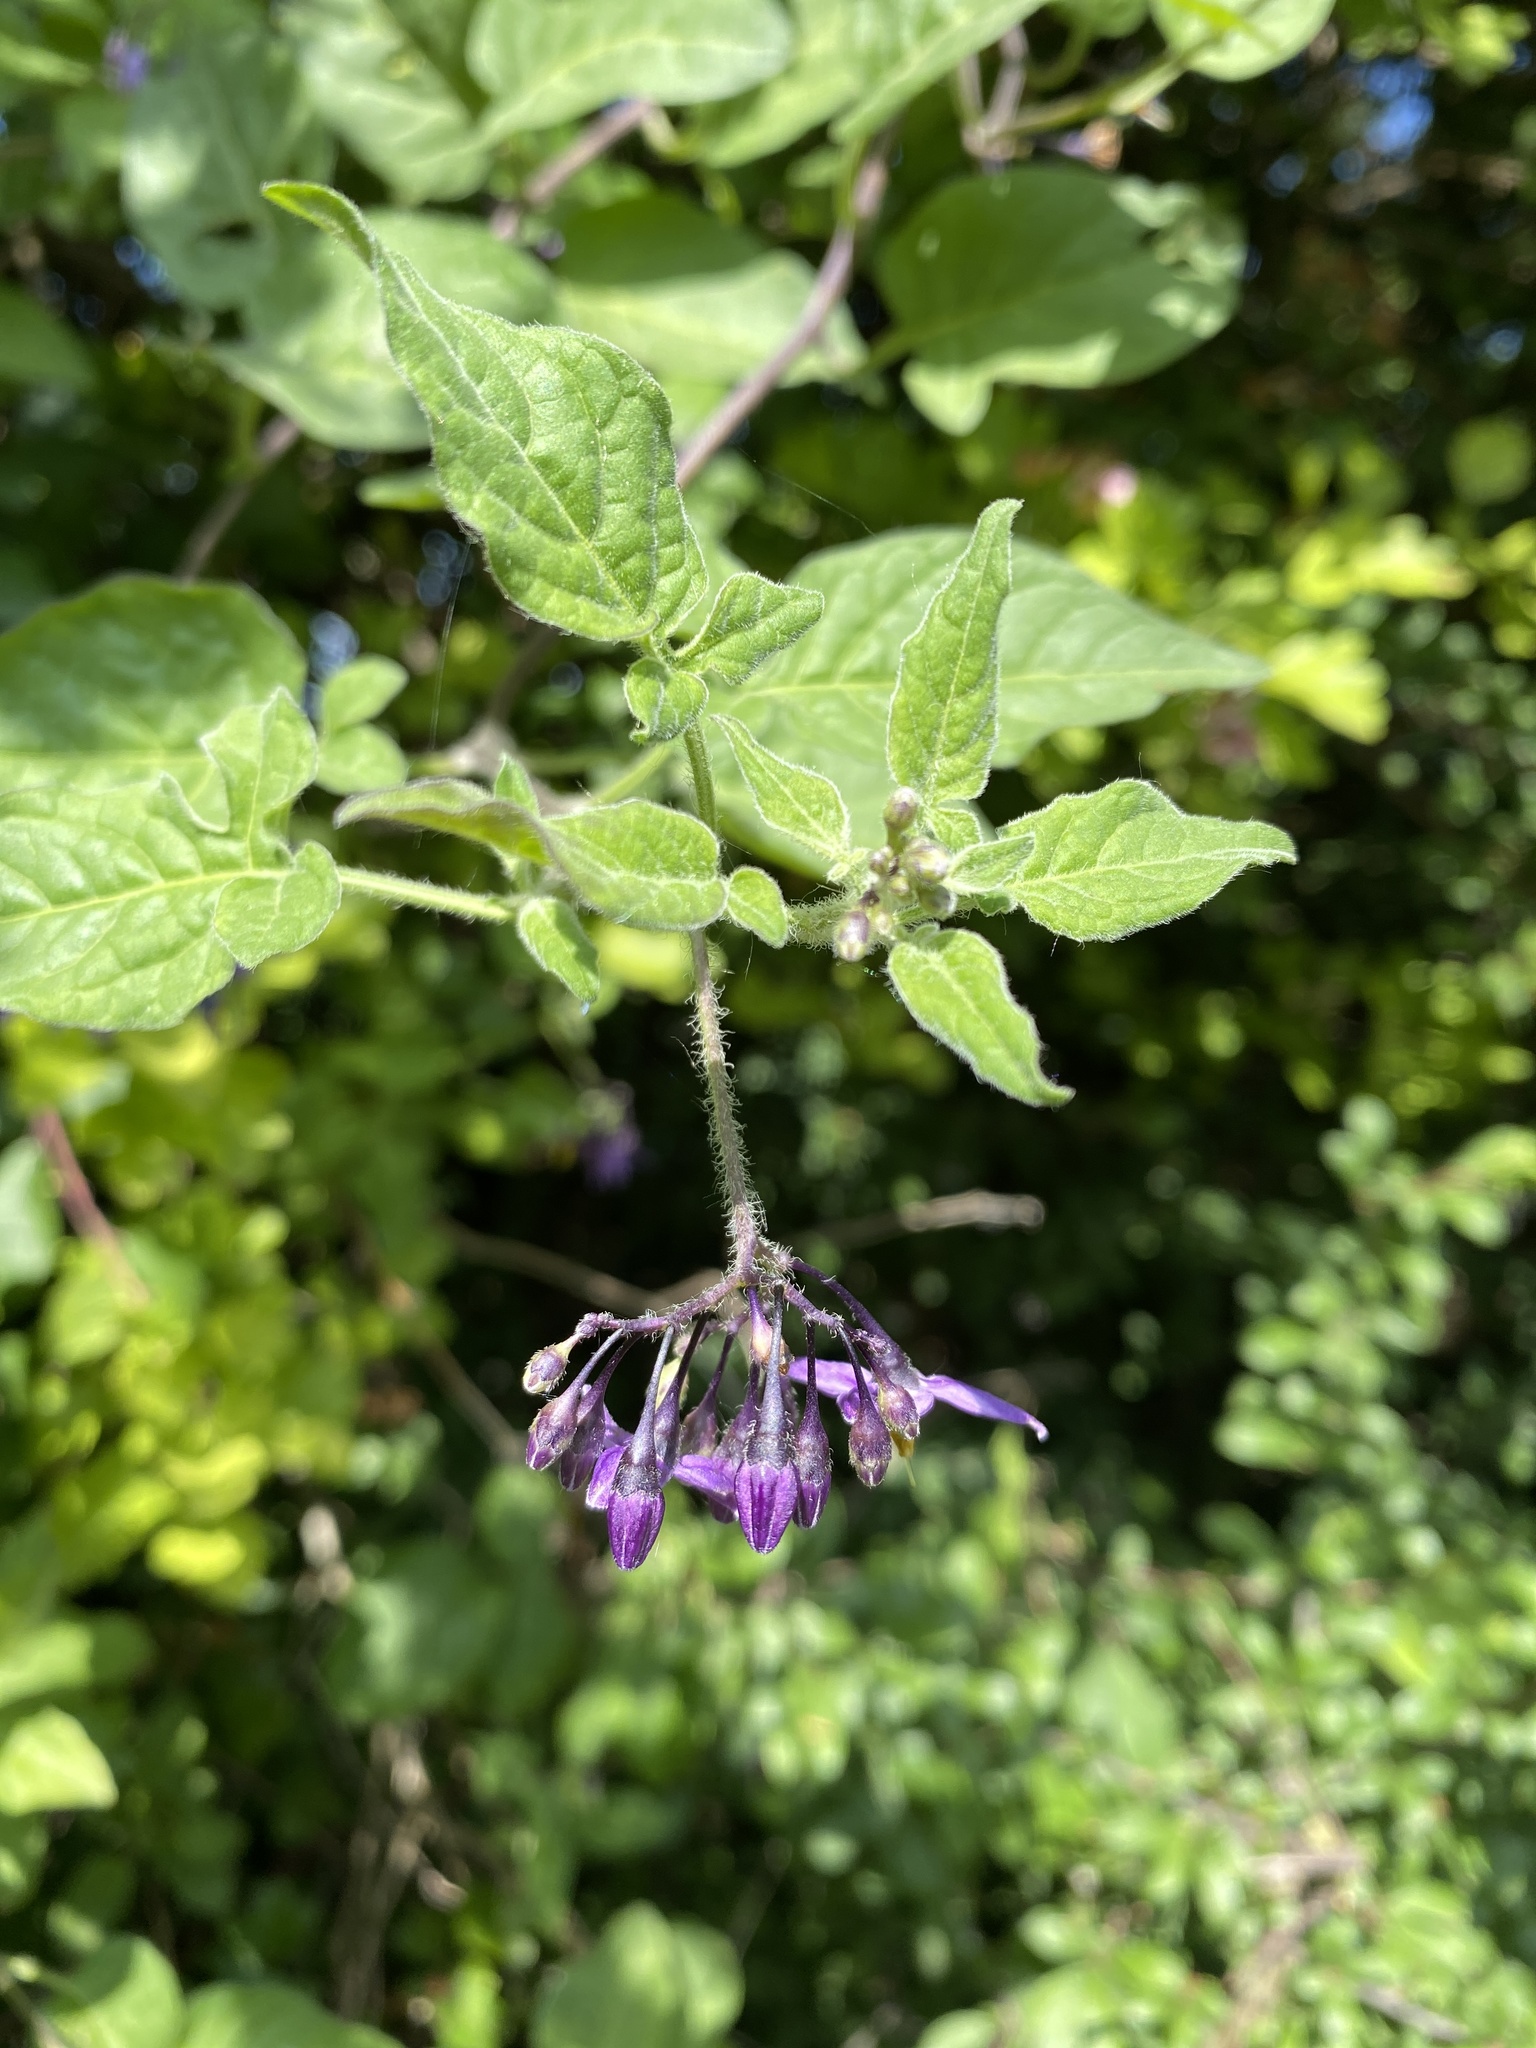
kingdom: Plantae
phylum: Tracheophyta
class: Magnoliopsida
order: Solanales
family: Solanaceae
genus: Solanum
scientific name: Solanum dulcamara
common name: Climbing nightshade
